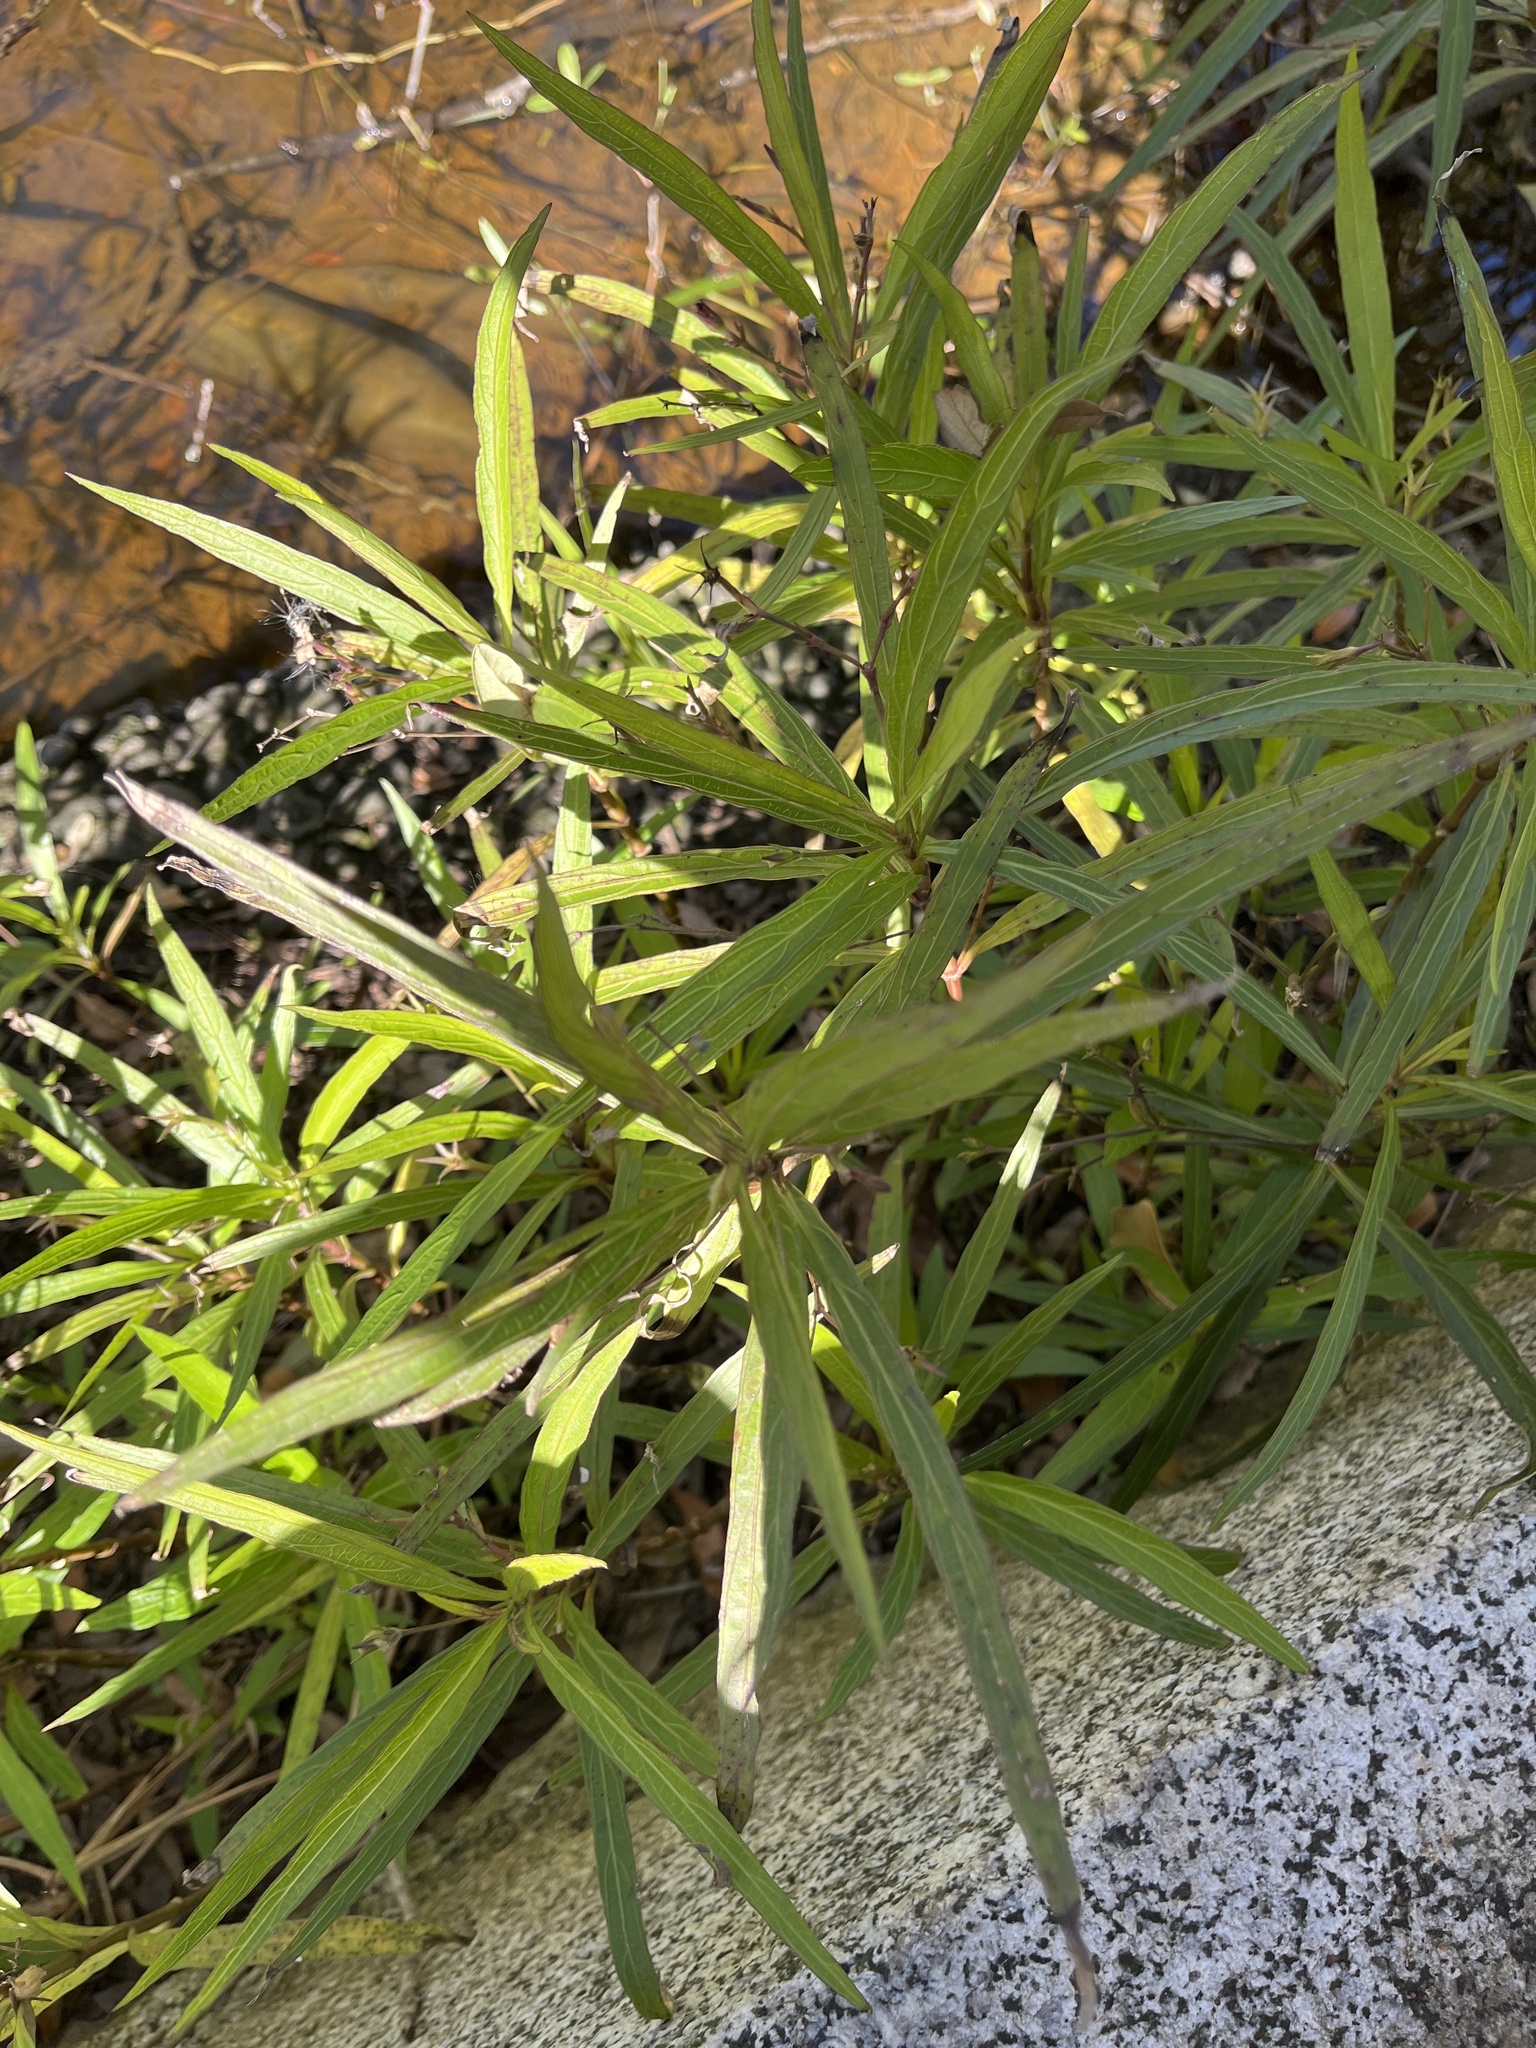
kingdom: Plantae
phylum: Tracheophyta
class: Magnoliopsida
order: Lamiales
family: Acanthaceae
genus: Ruellia
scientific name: Ruellia simplex
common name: Softseed wild petunia
